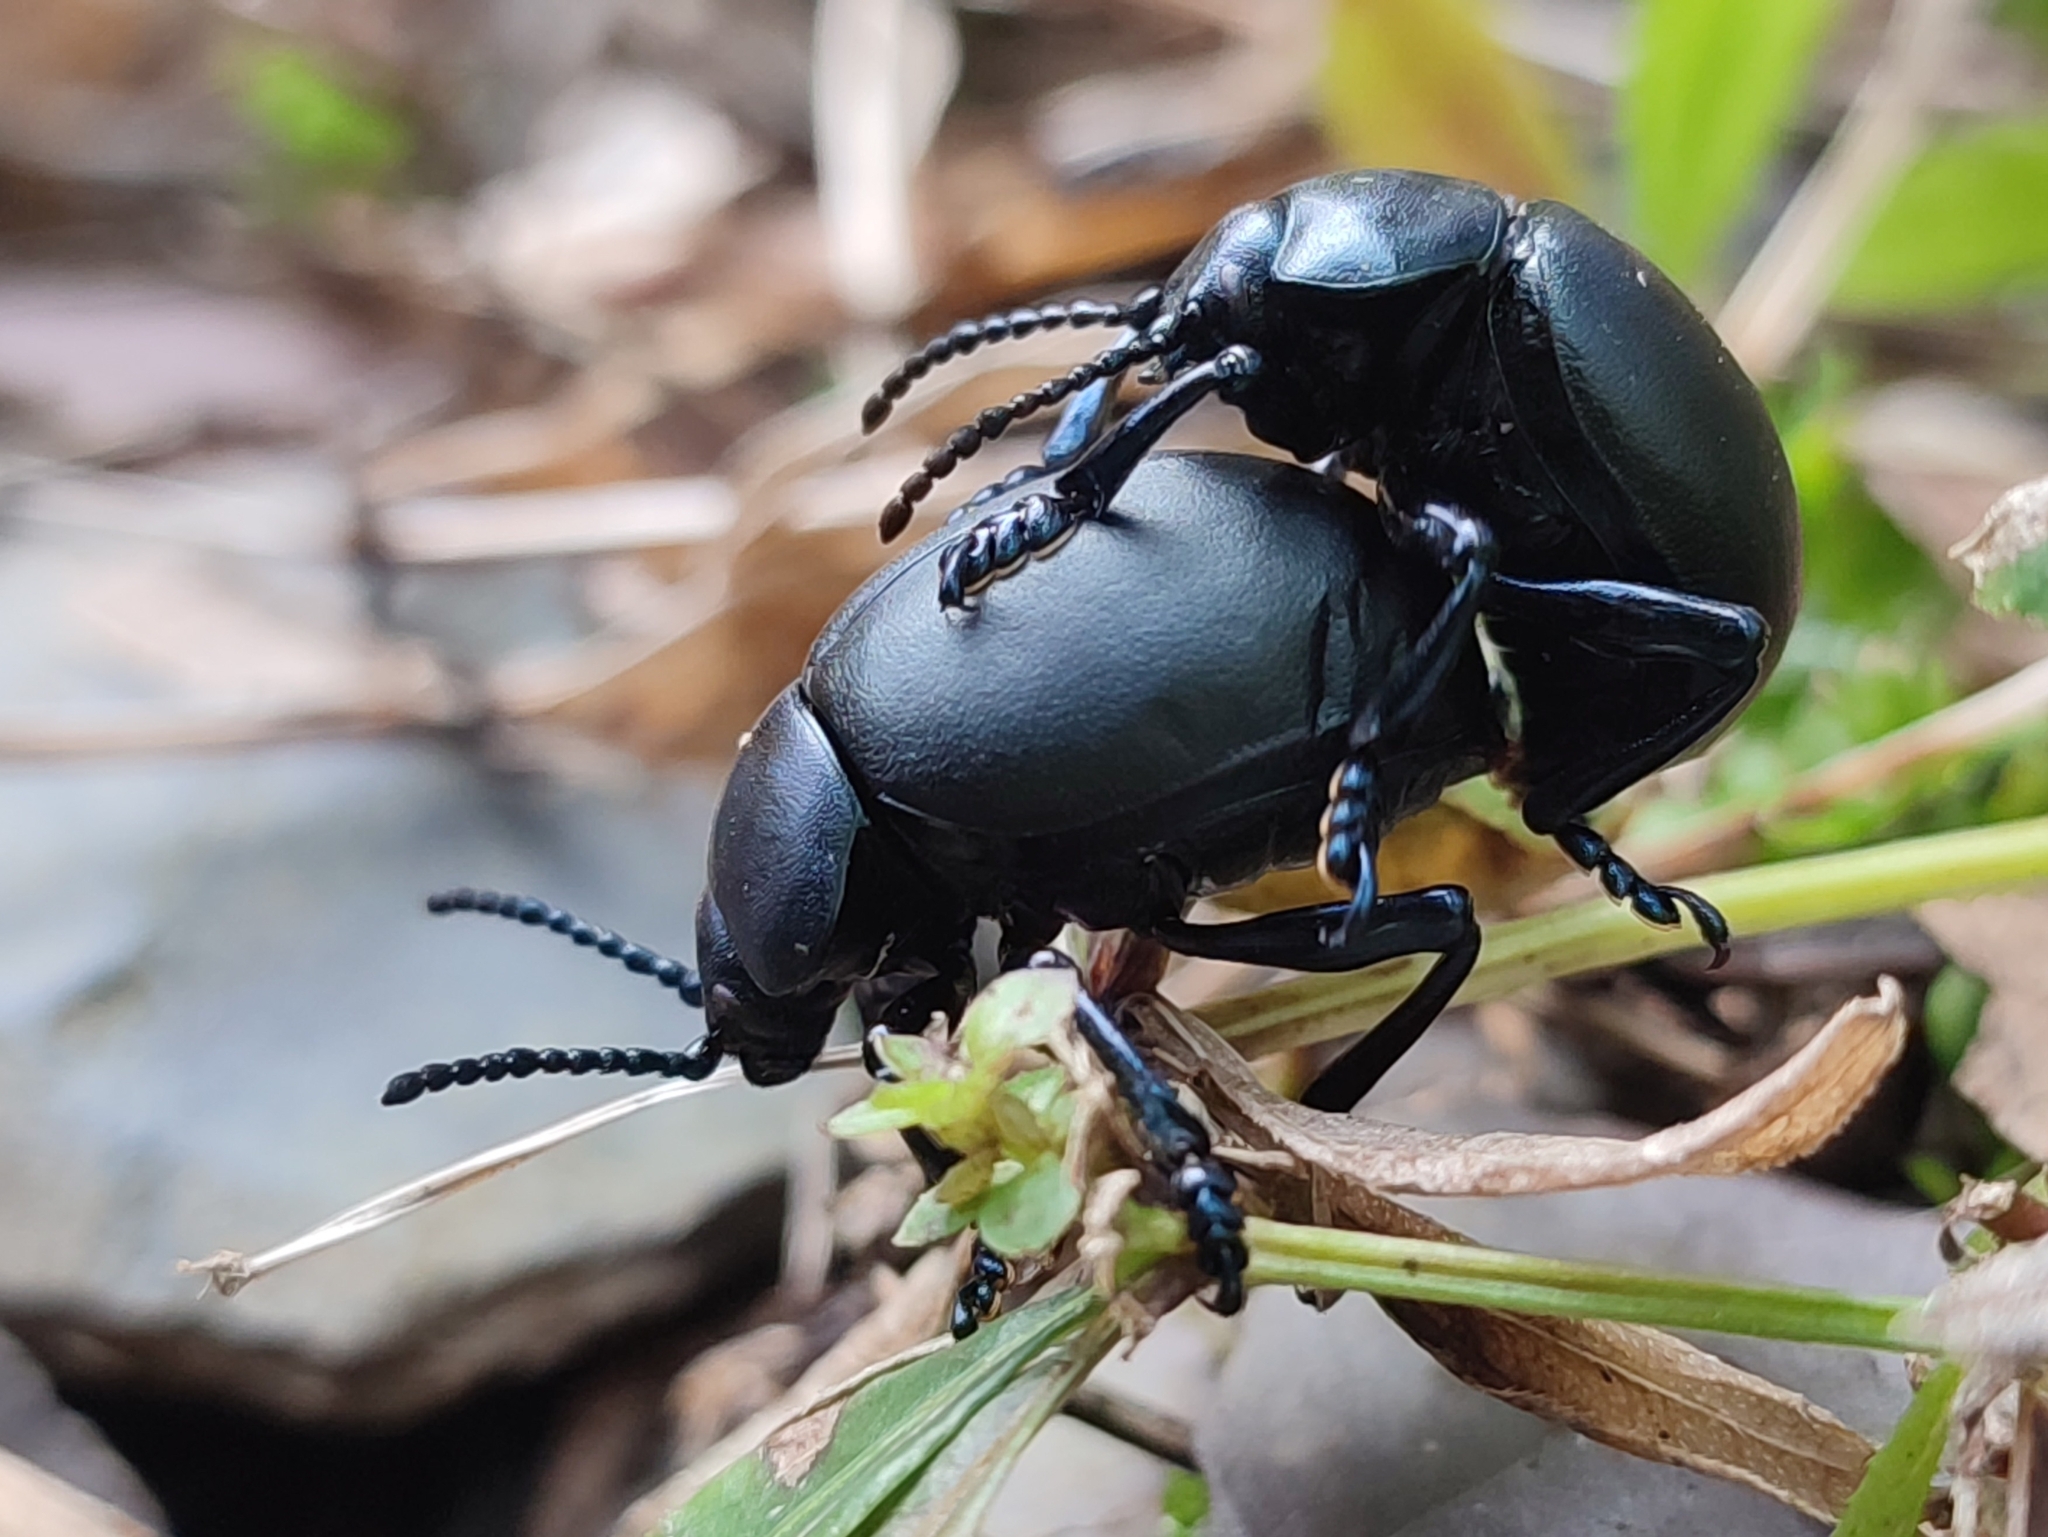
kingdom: Animalia
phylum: Arthropoda
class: Insecta
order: Coleoptera
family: Chrysomelidae
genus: Timarcha
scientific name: Timarcha tenebricosa
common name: Bloody-nosed beetle
